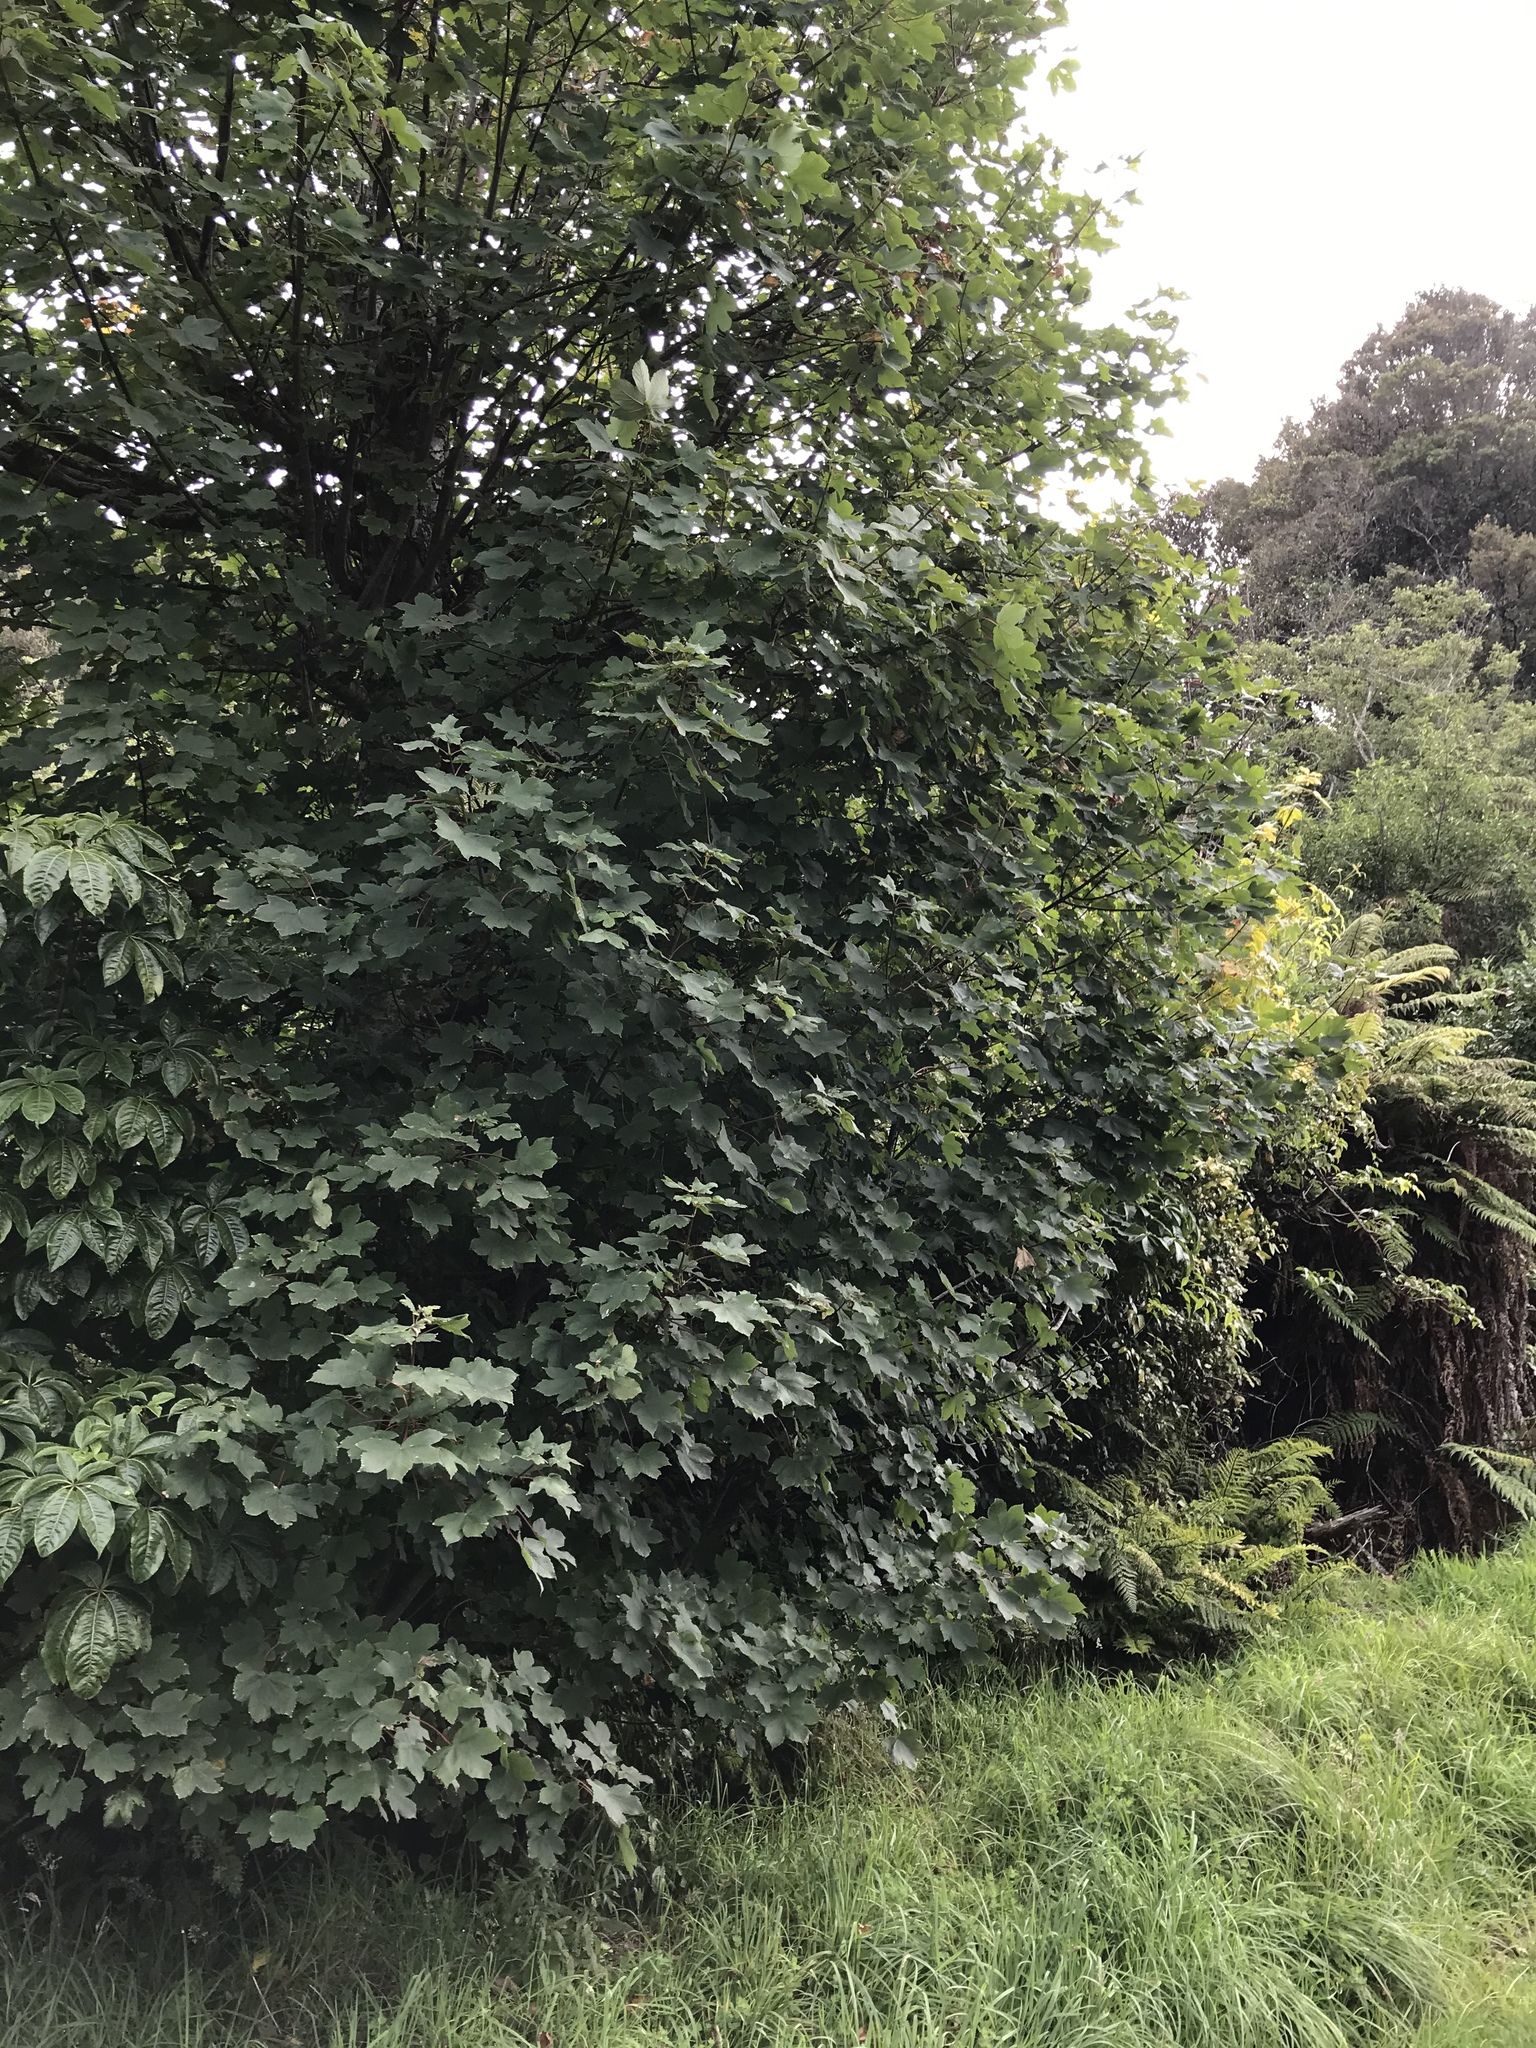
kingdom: Plantae
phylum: Tracheophyta
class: Magnoliopsida
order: Sapindales
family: Sapindaceae
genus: Acer
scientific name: Acer pseudoplatanus
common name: Sycamore
